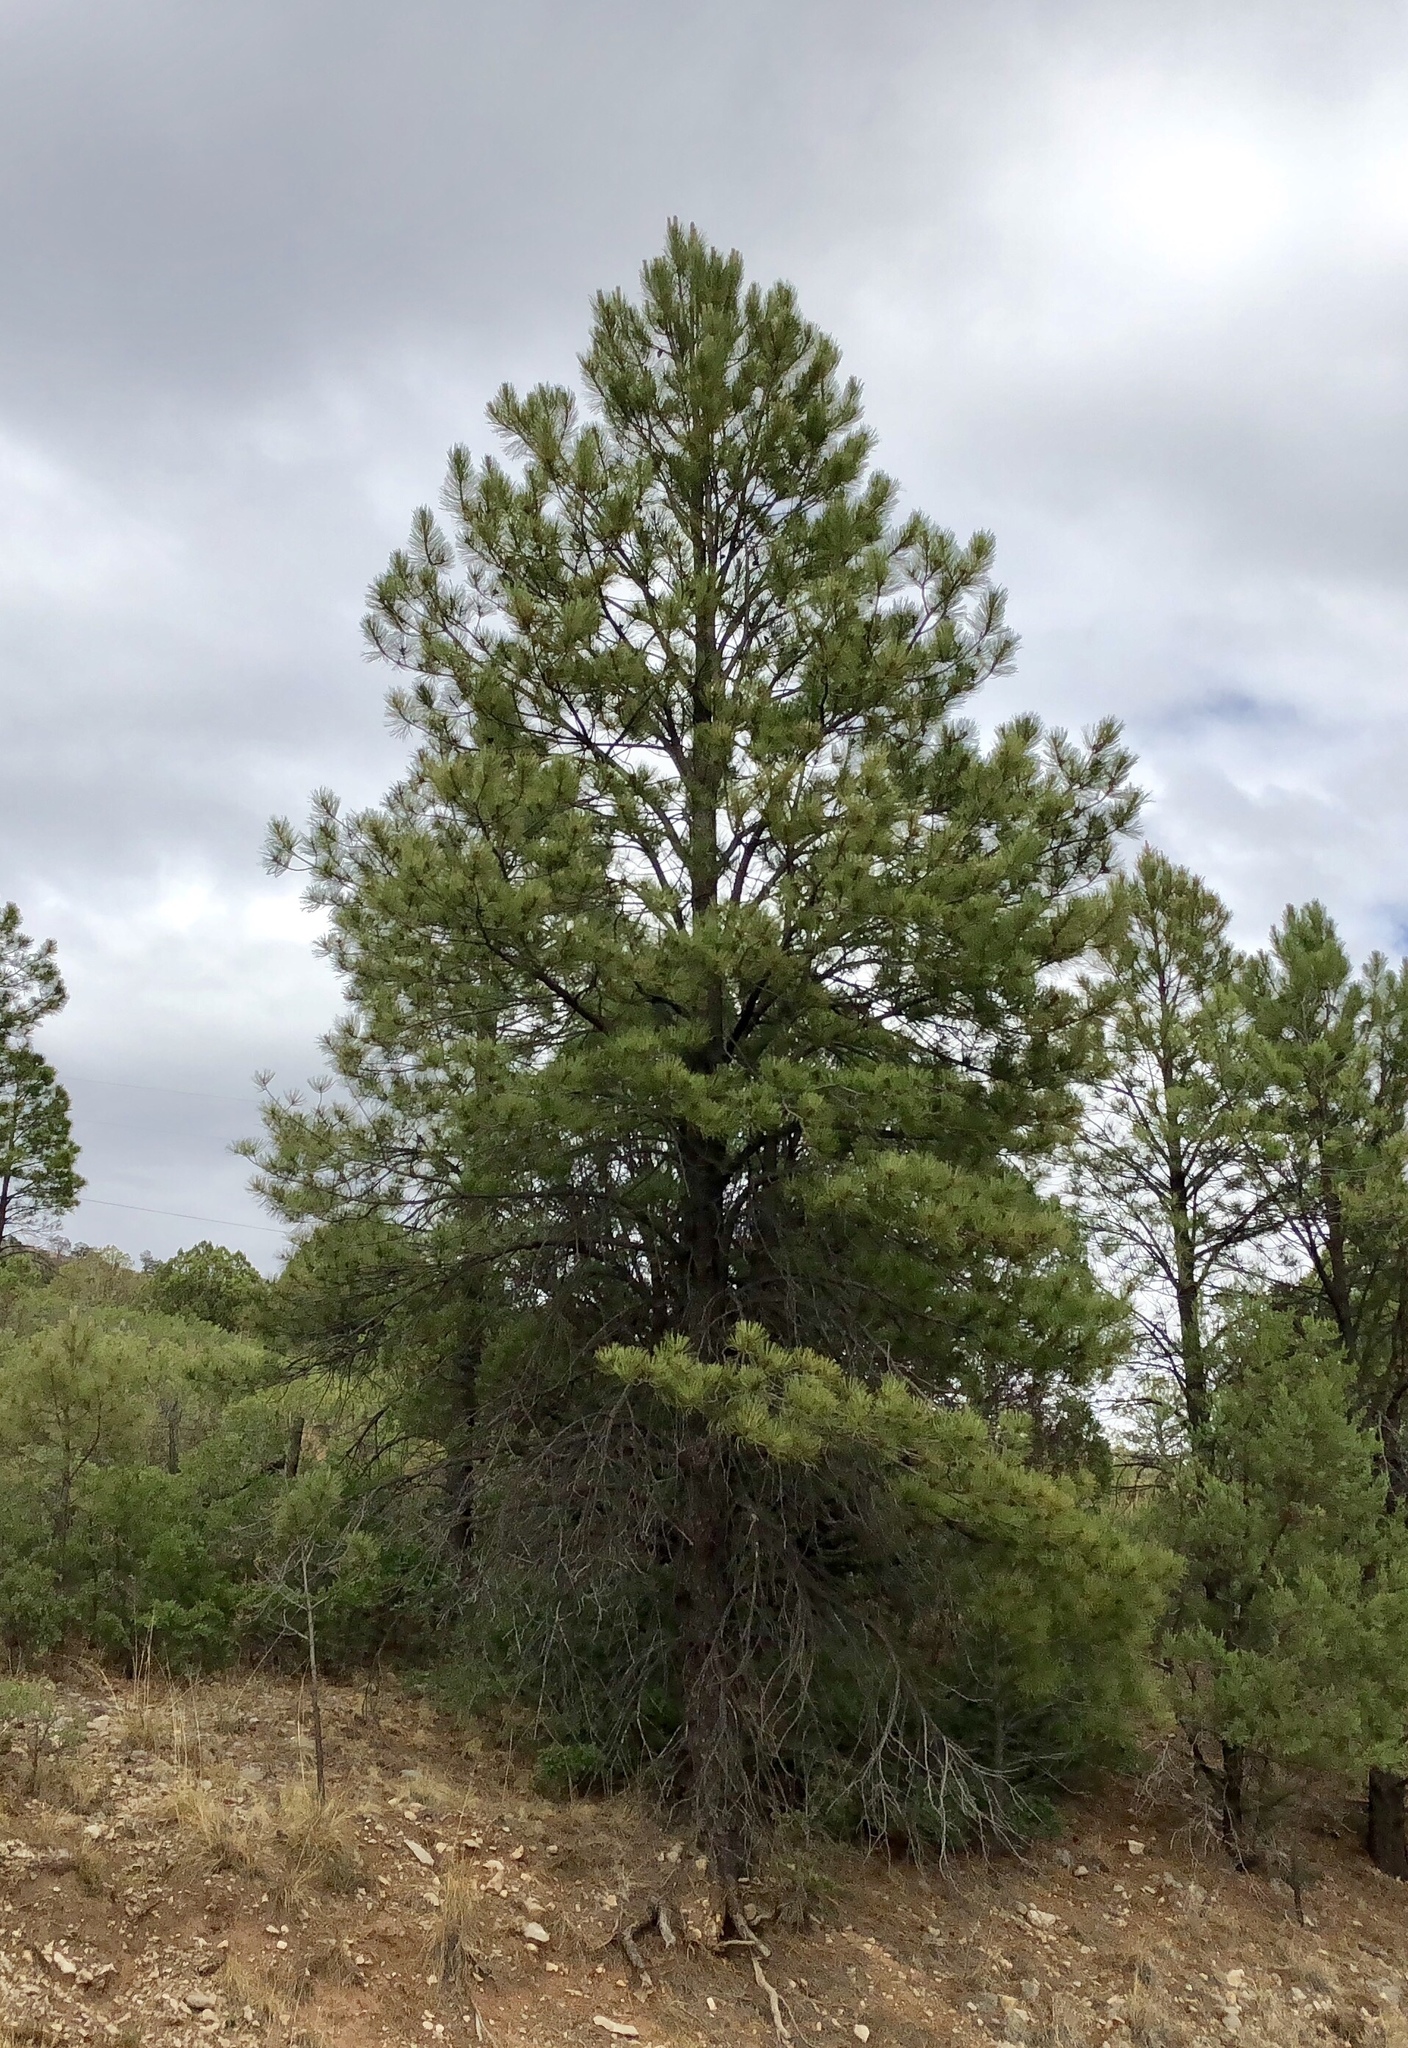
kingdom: Plantae
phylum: Tracheophyta
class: Pinopsida
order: Pinales
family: Pinaceae
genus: Pinus
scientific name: Pinus ponderosa
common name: Western yellow-pine
